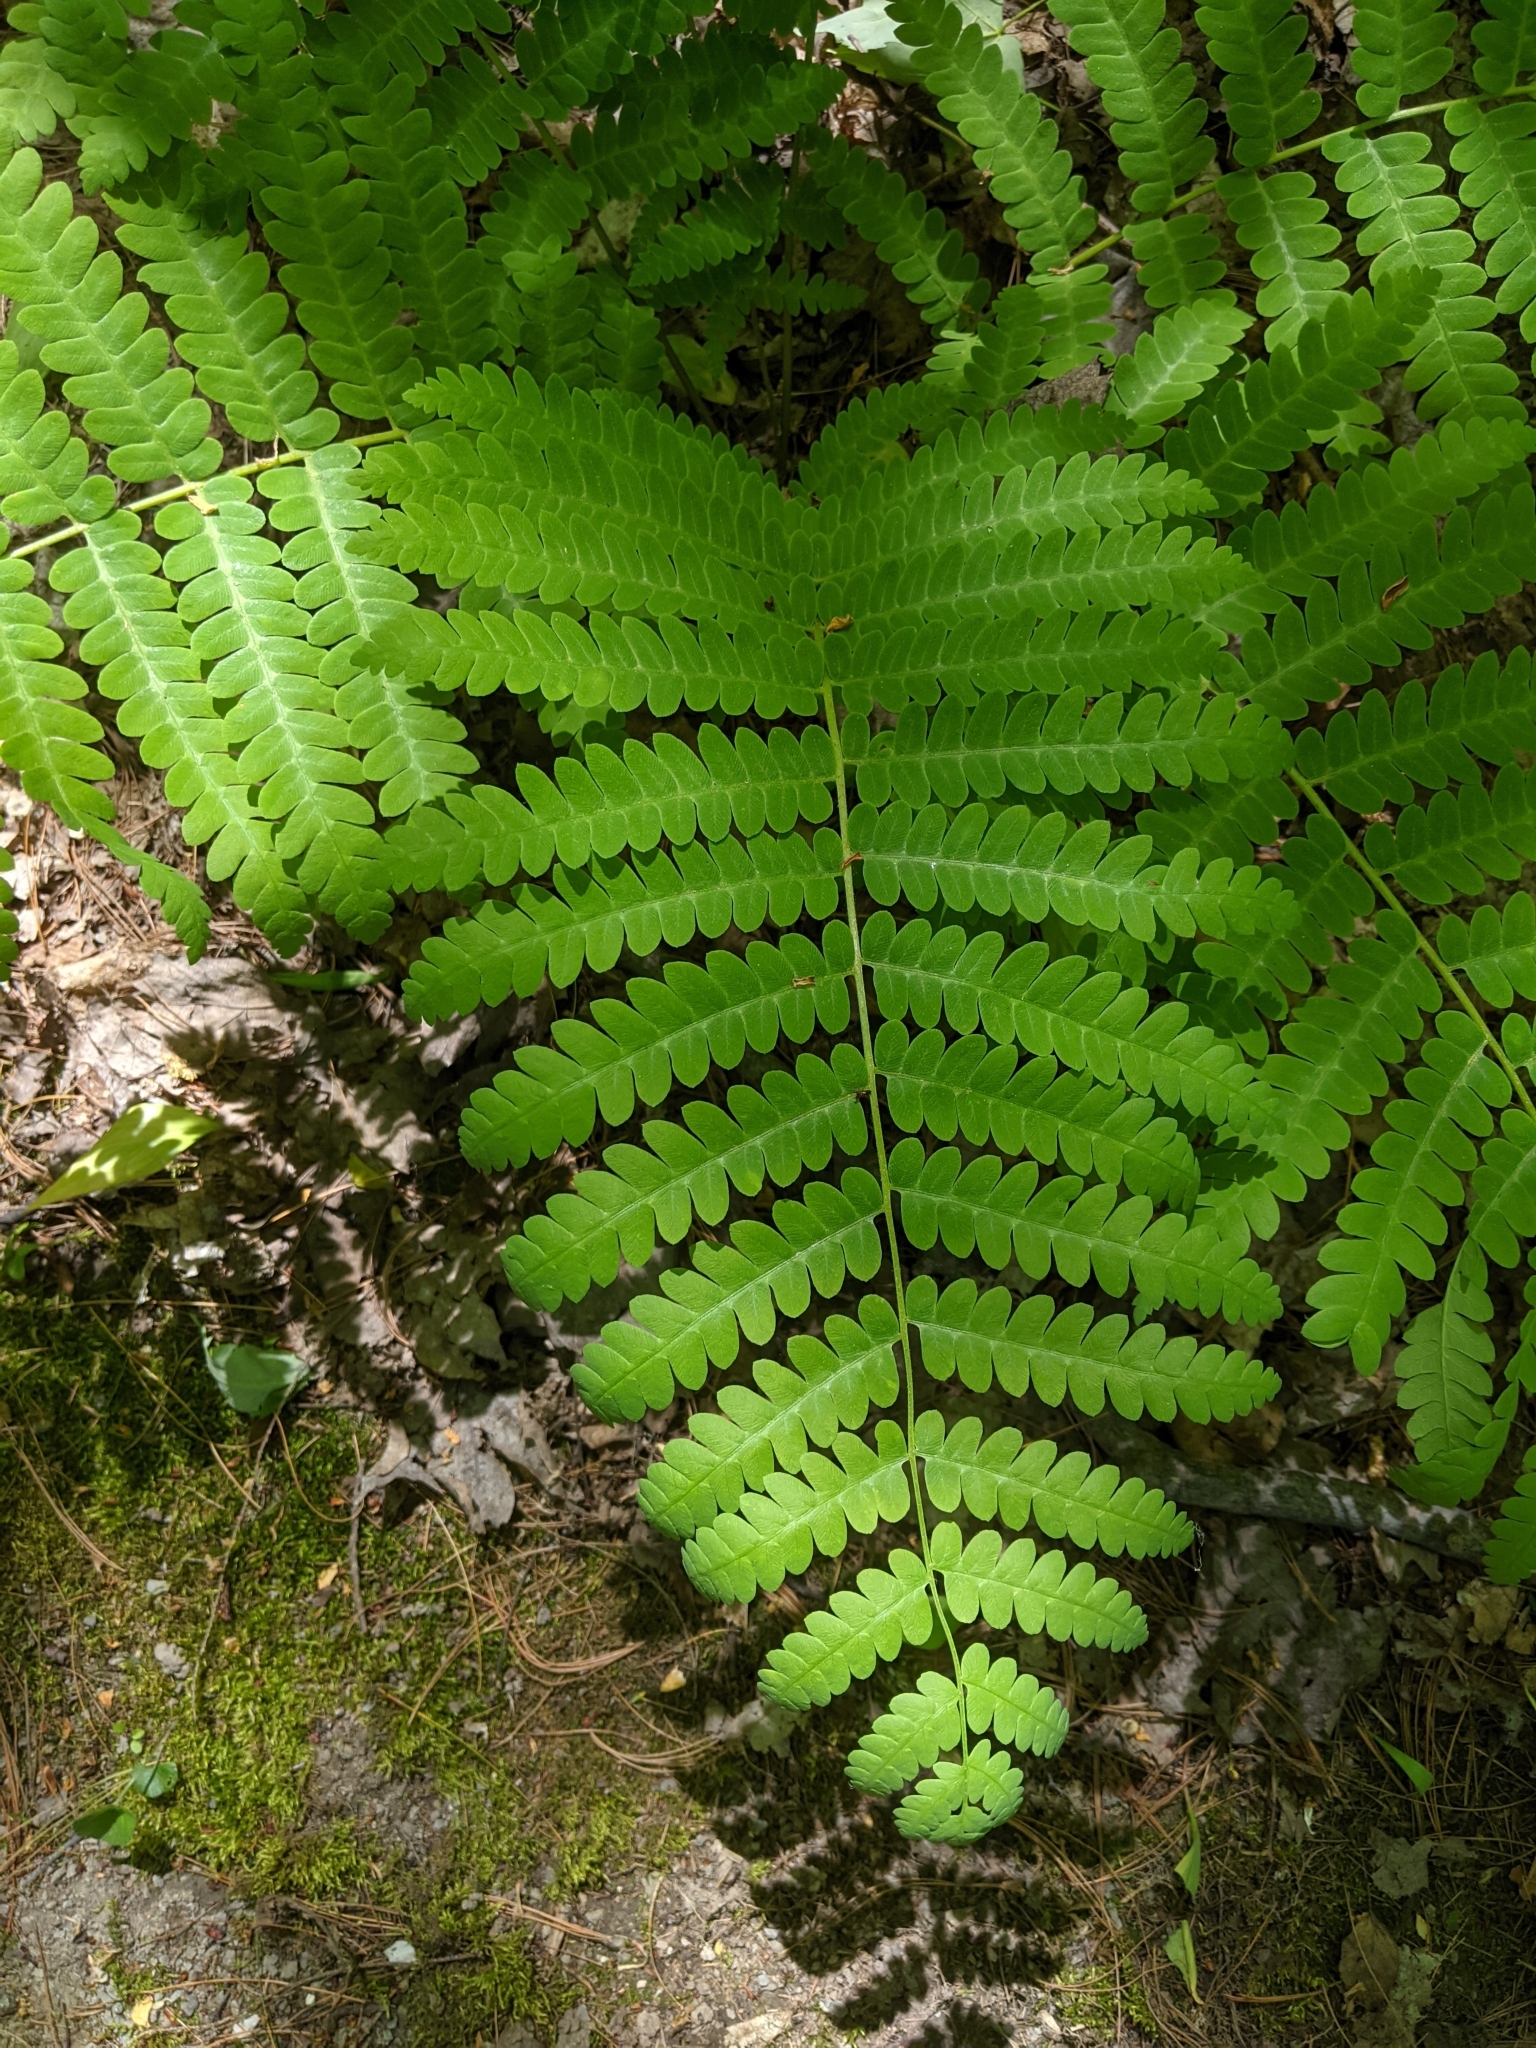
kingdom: Plantae
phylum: Tracheophyta
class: Polypodiopsida
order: Osmundales
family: Osmundaceae
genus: Claytosmunda
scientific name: Claytosmunda claytoniana
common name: Clayton's fern
